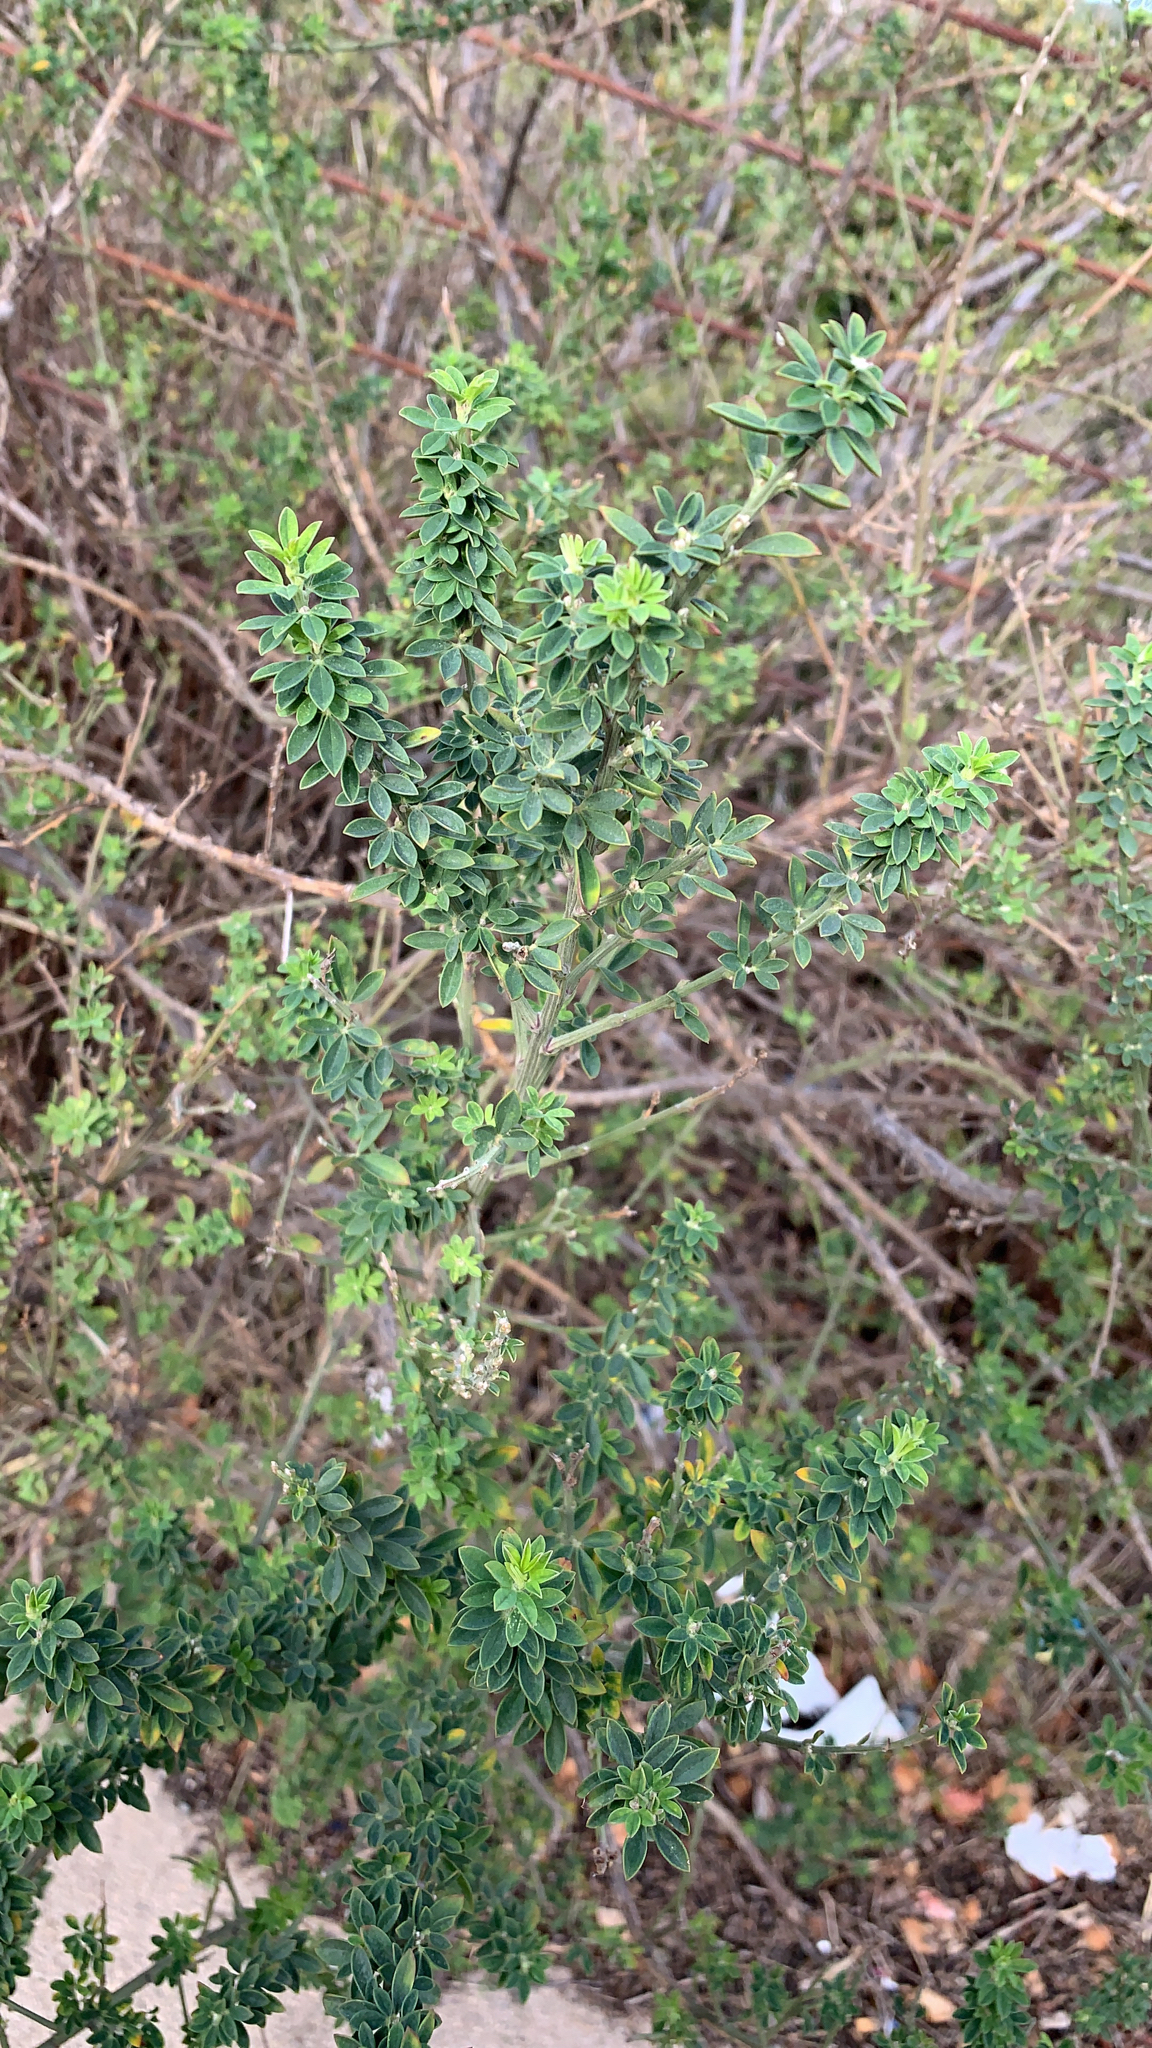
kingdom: Plantae
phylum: Tracheophyta
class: Magnoliopsida
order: Fabales
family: Fabaceae
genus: Genista
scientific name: Genista monspessulana
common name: Montpellier broom
